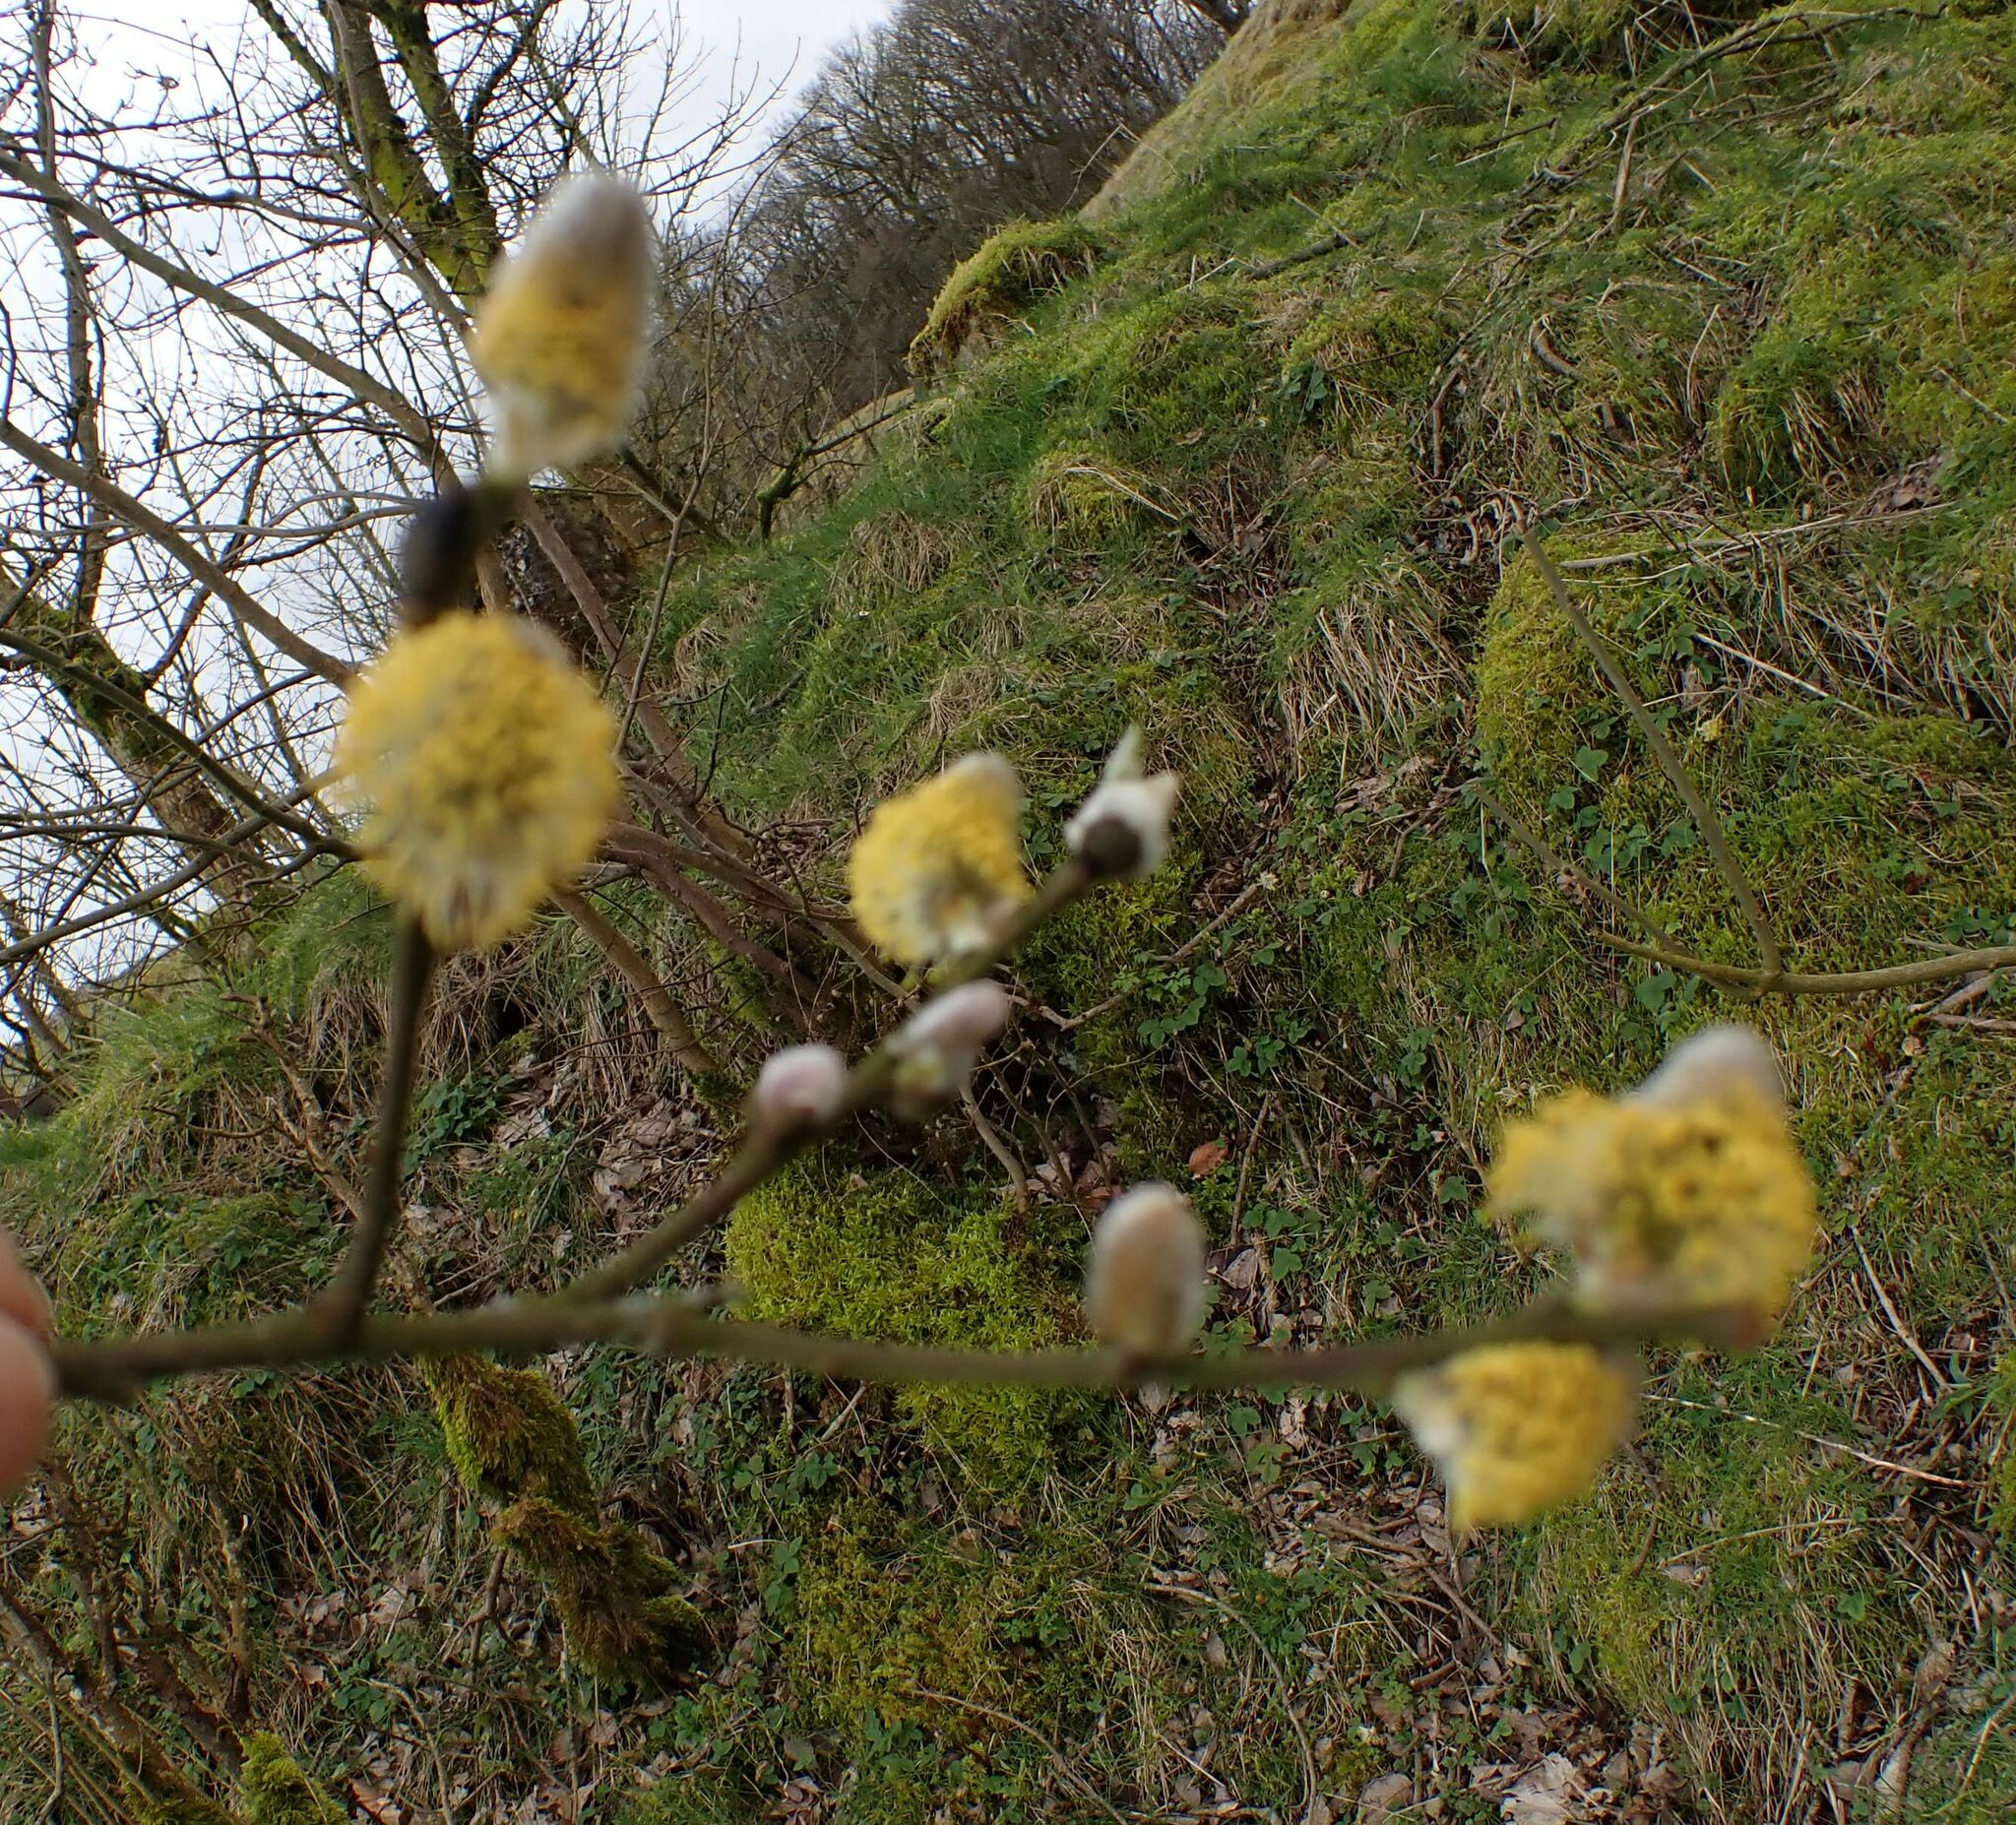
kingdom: Plantae
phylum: Tracheophyta
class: Magnoliopsida
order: Malpighiales
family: Salicaceae
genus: Salix
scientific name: Salix caprea
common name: Goat willow
